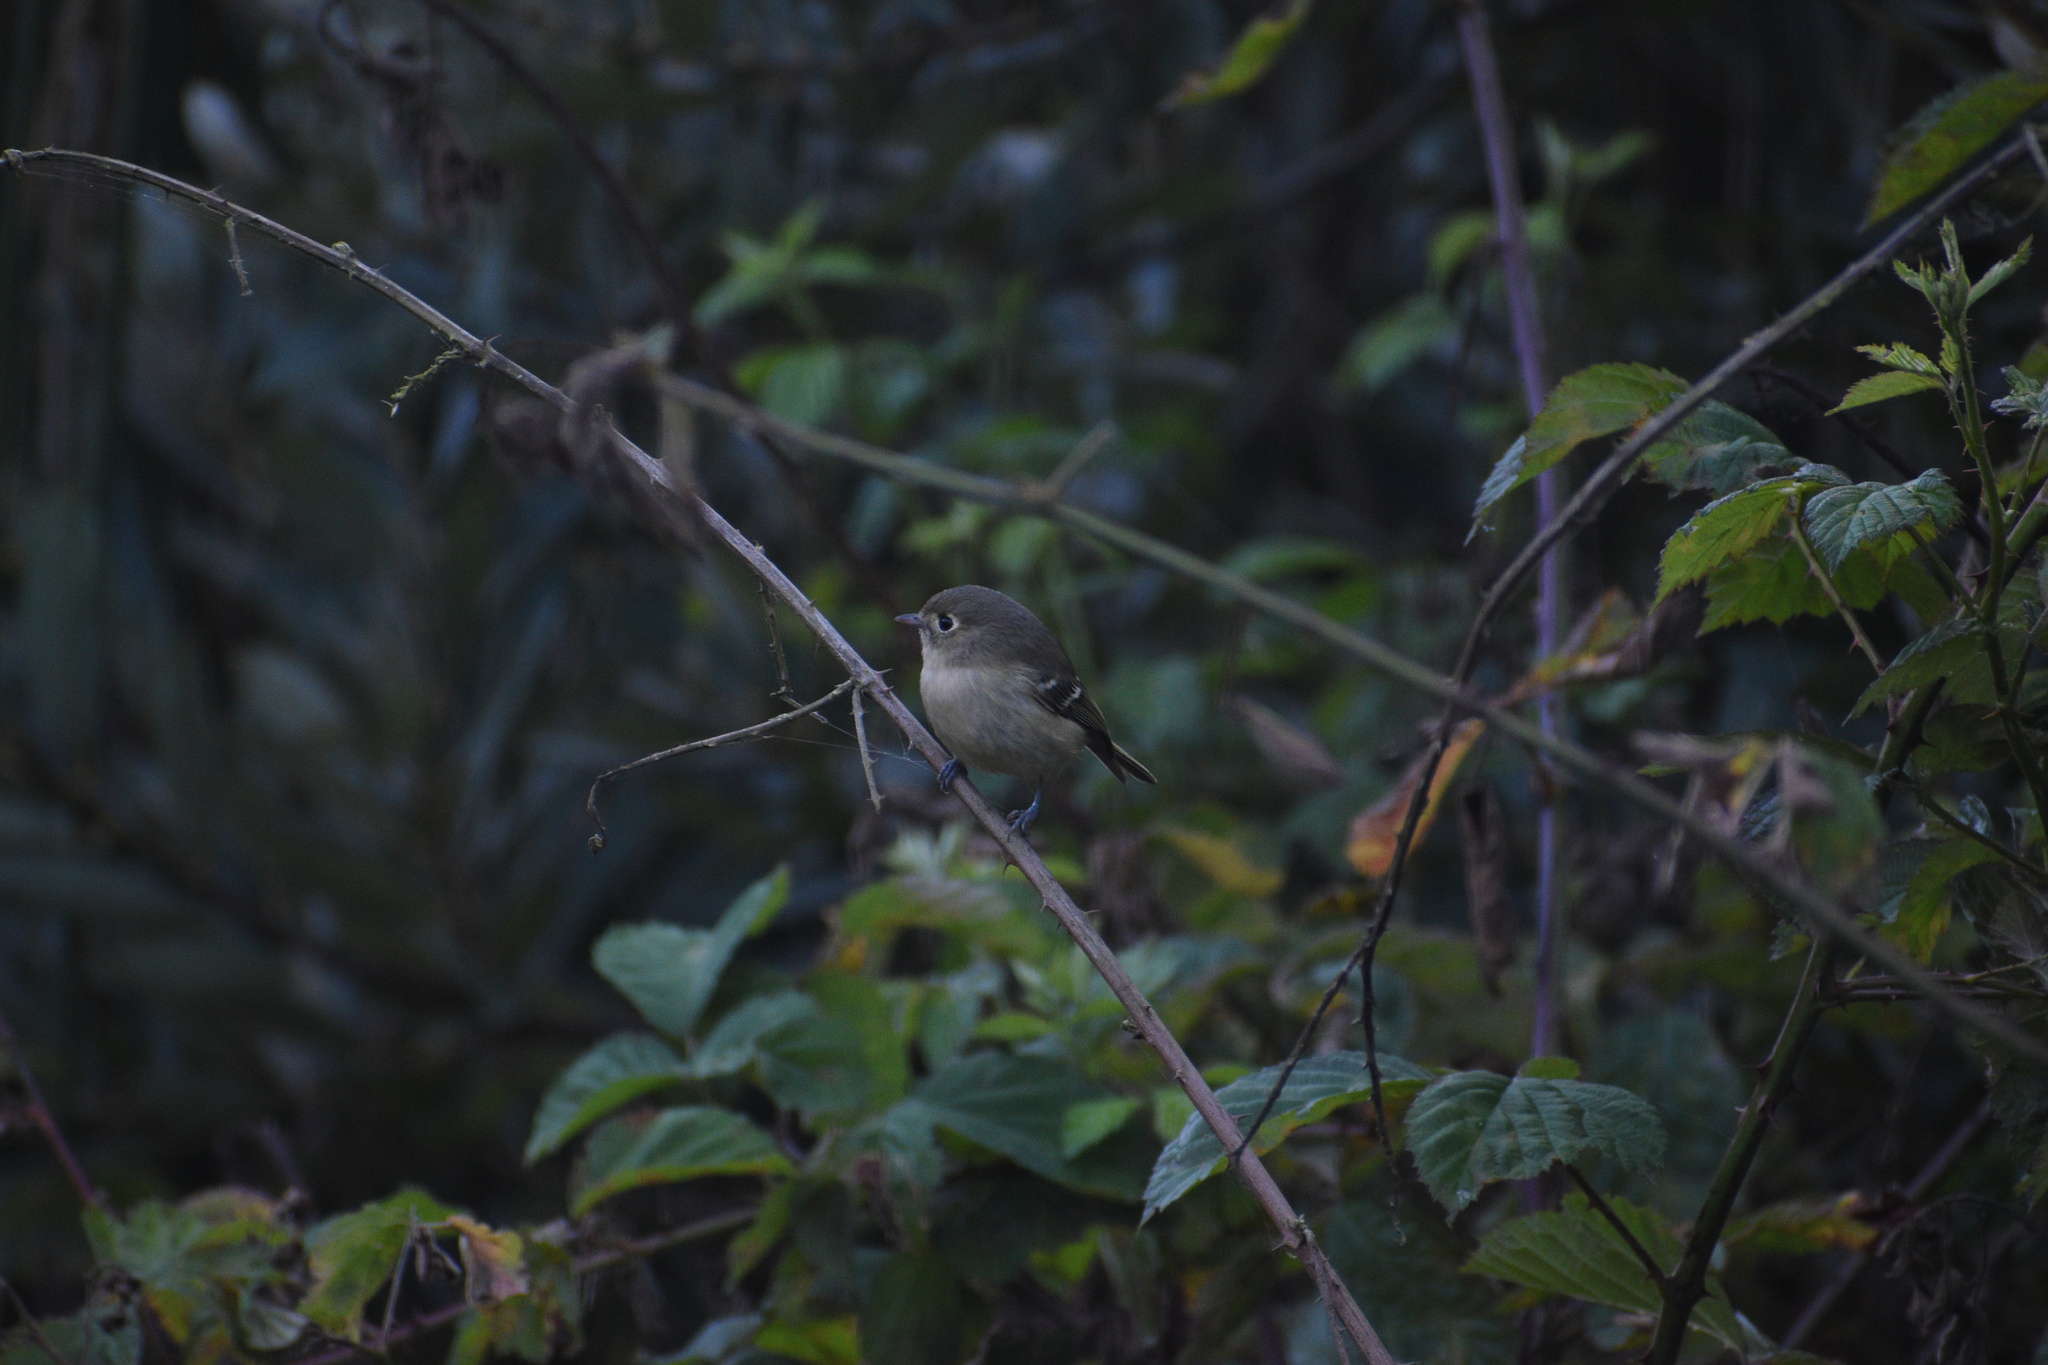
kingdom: Animalia
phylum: Chordata
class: Aves
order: Passeriformes
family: Vireonidae
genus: Vireo
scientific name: Vireo huttoni
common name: Hutton's vireo
